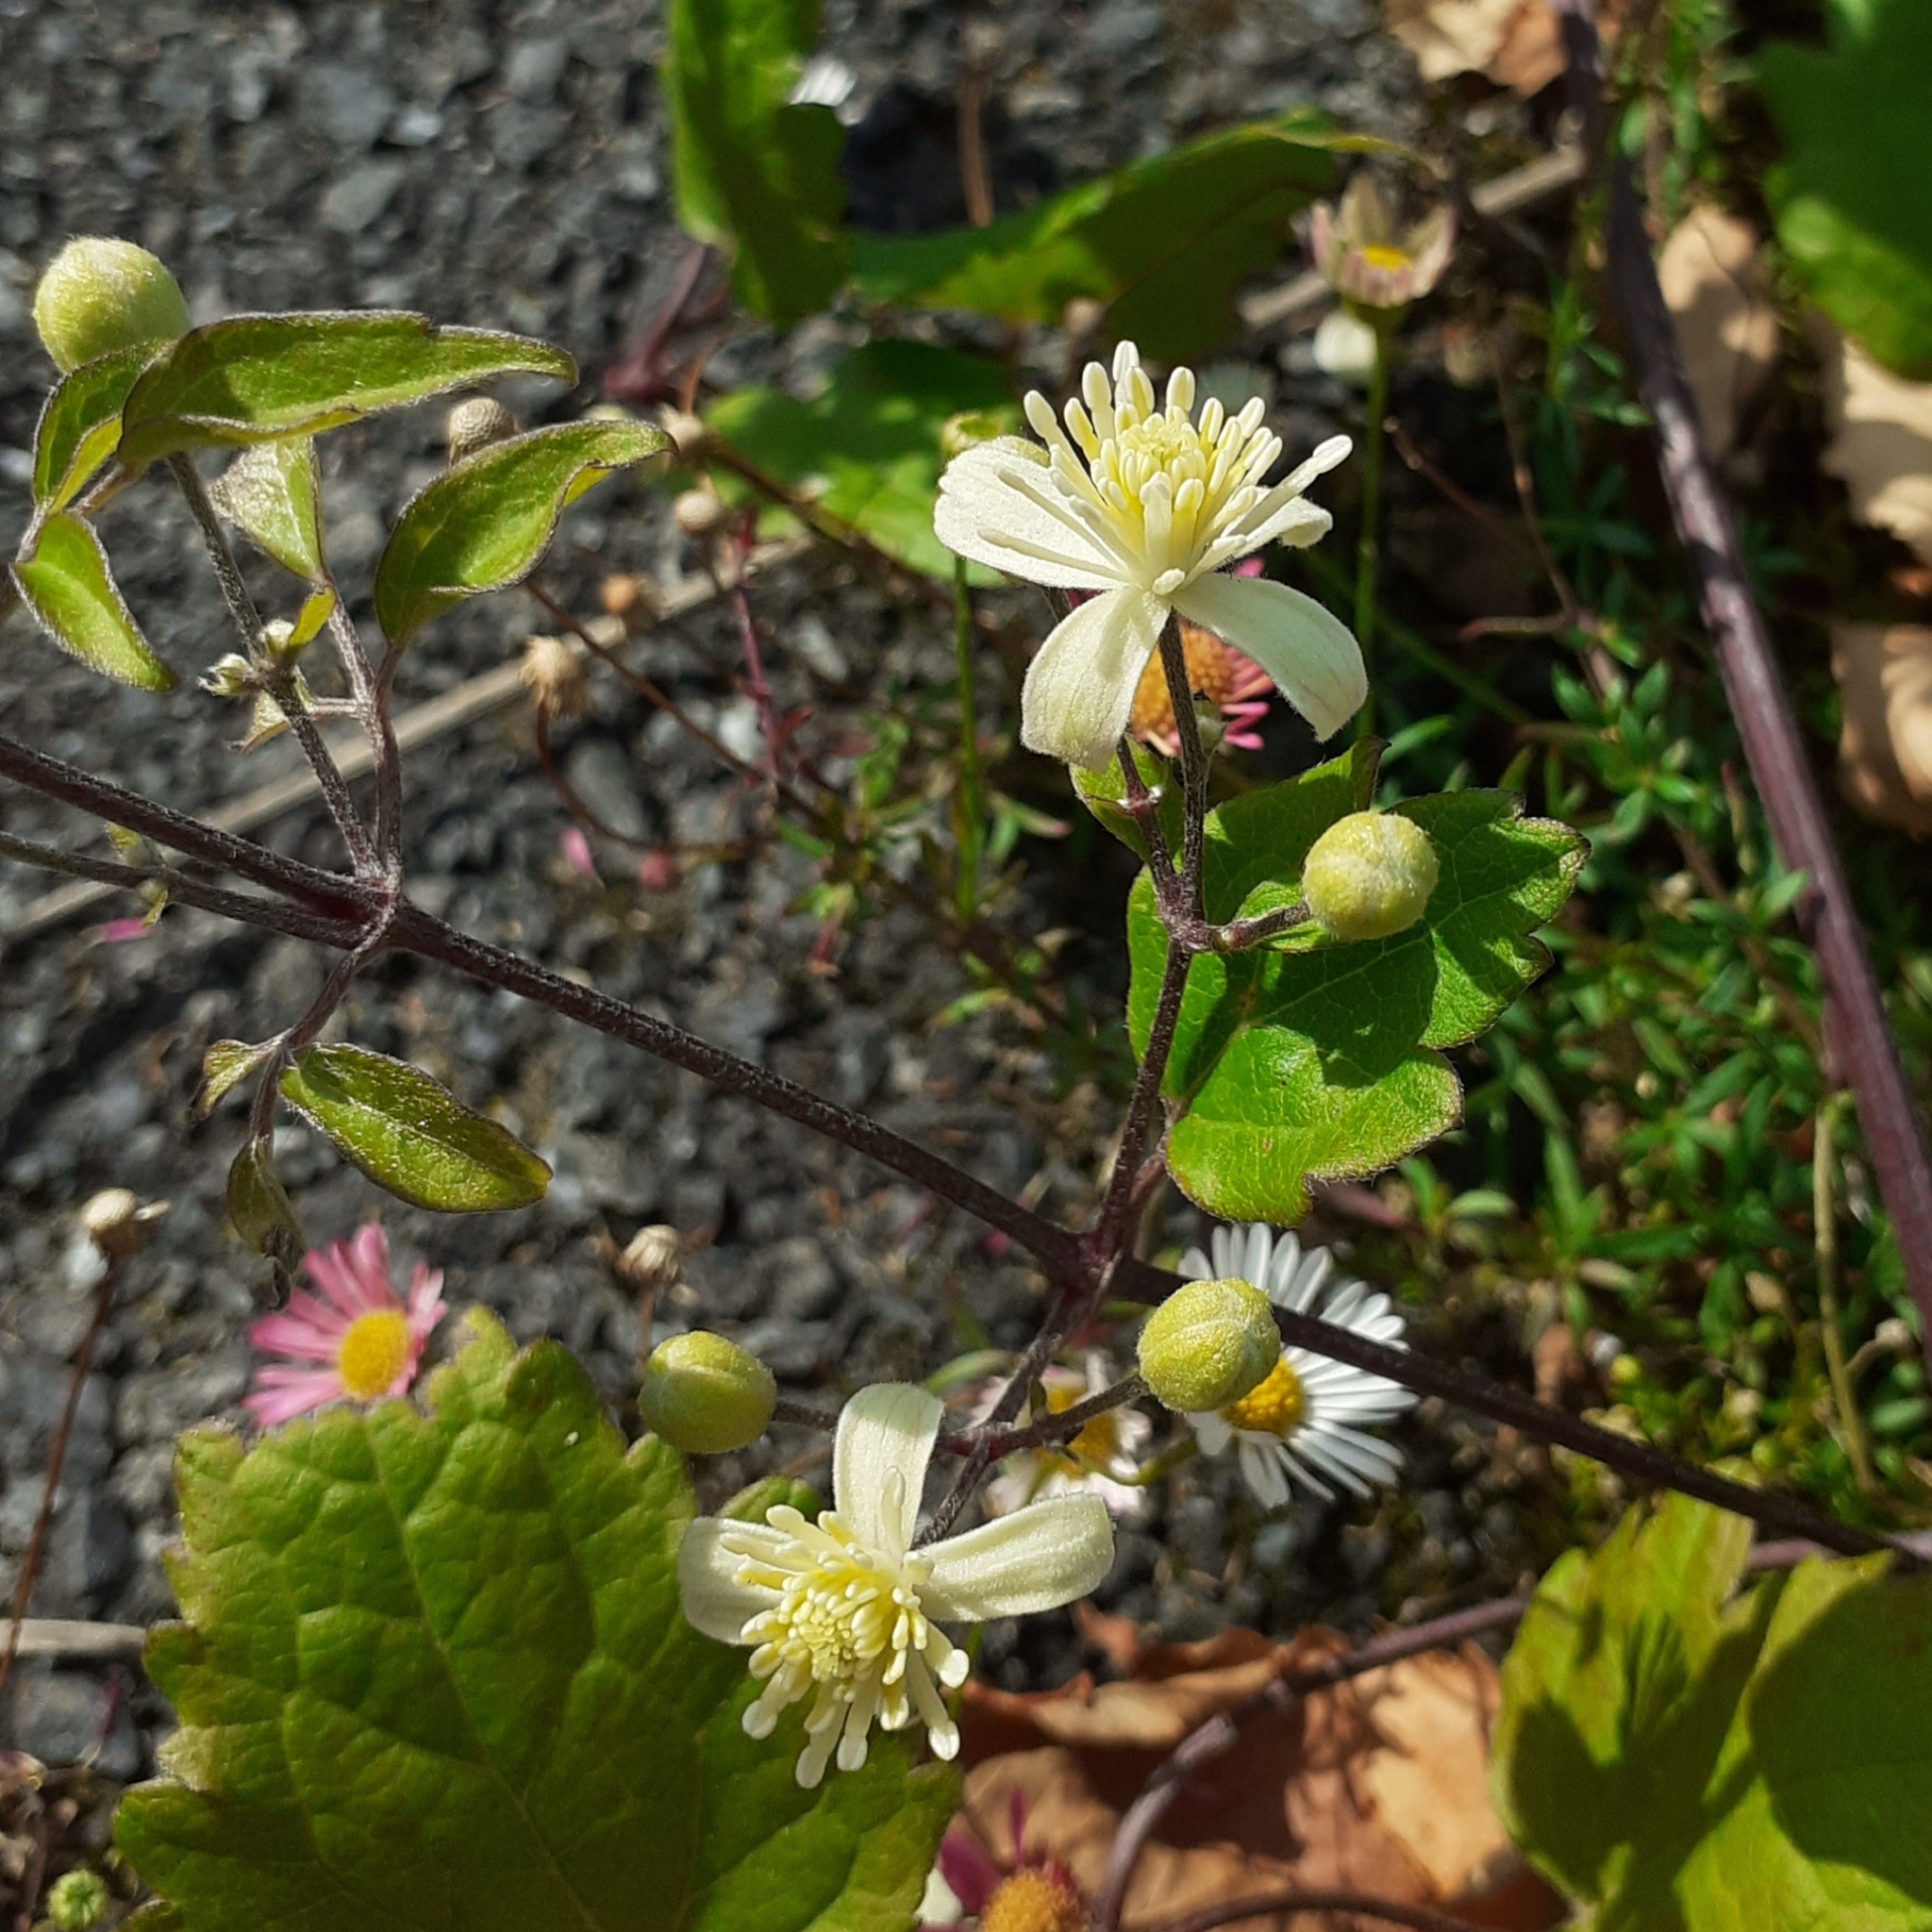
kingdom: Plantae
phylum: Tracheophyta
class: Magnoliopsida
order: Ranunculales
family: Ranunculaceae
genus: Clematis
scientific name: Clematis vitalba
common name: Evergreen clematis
